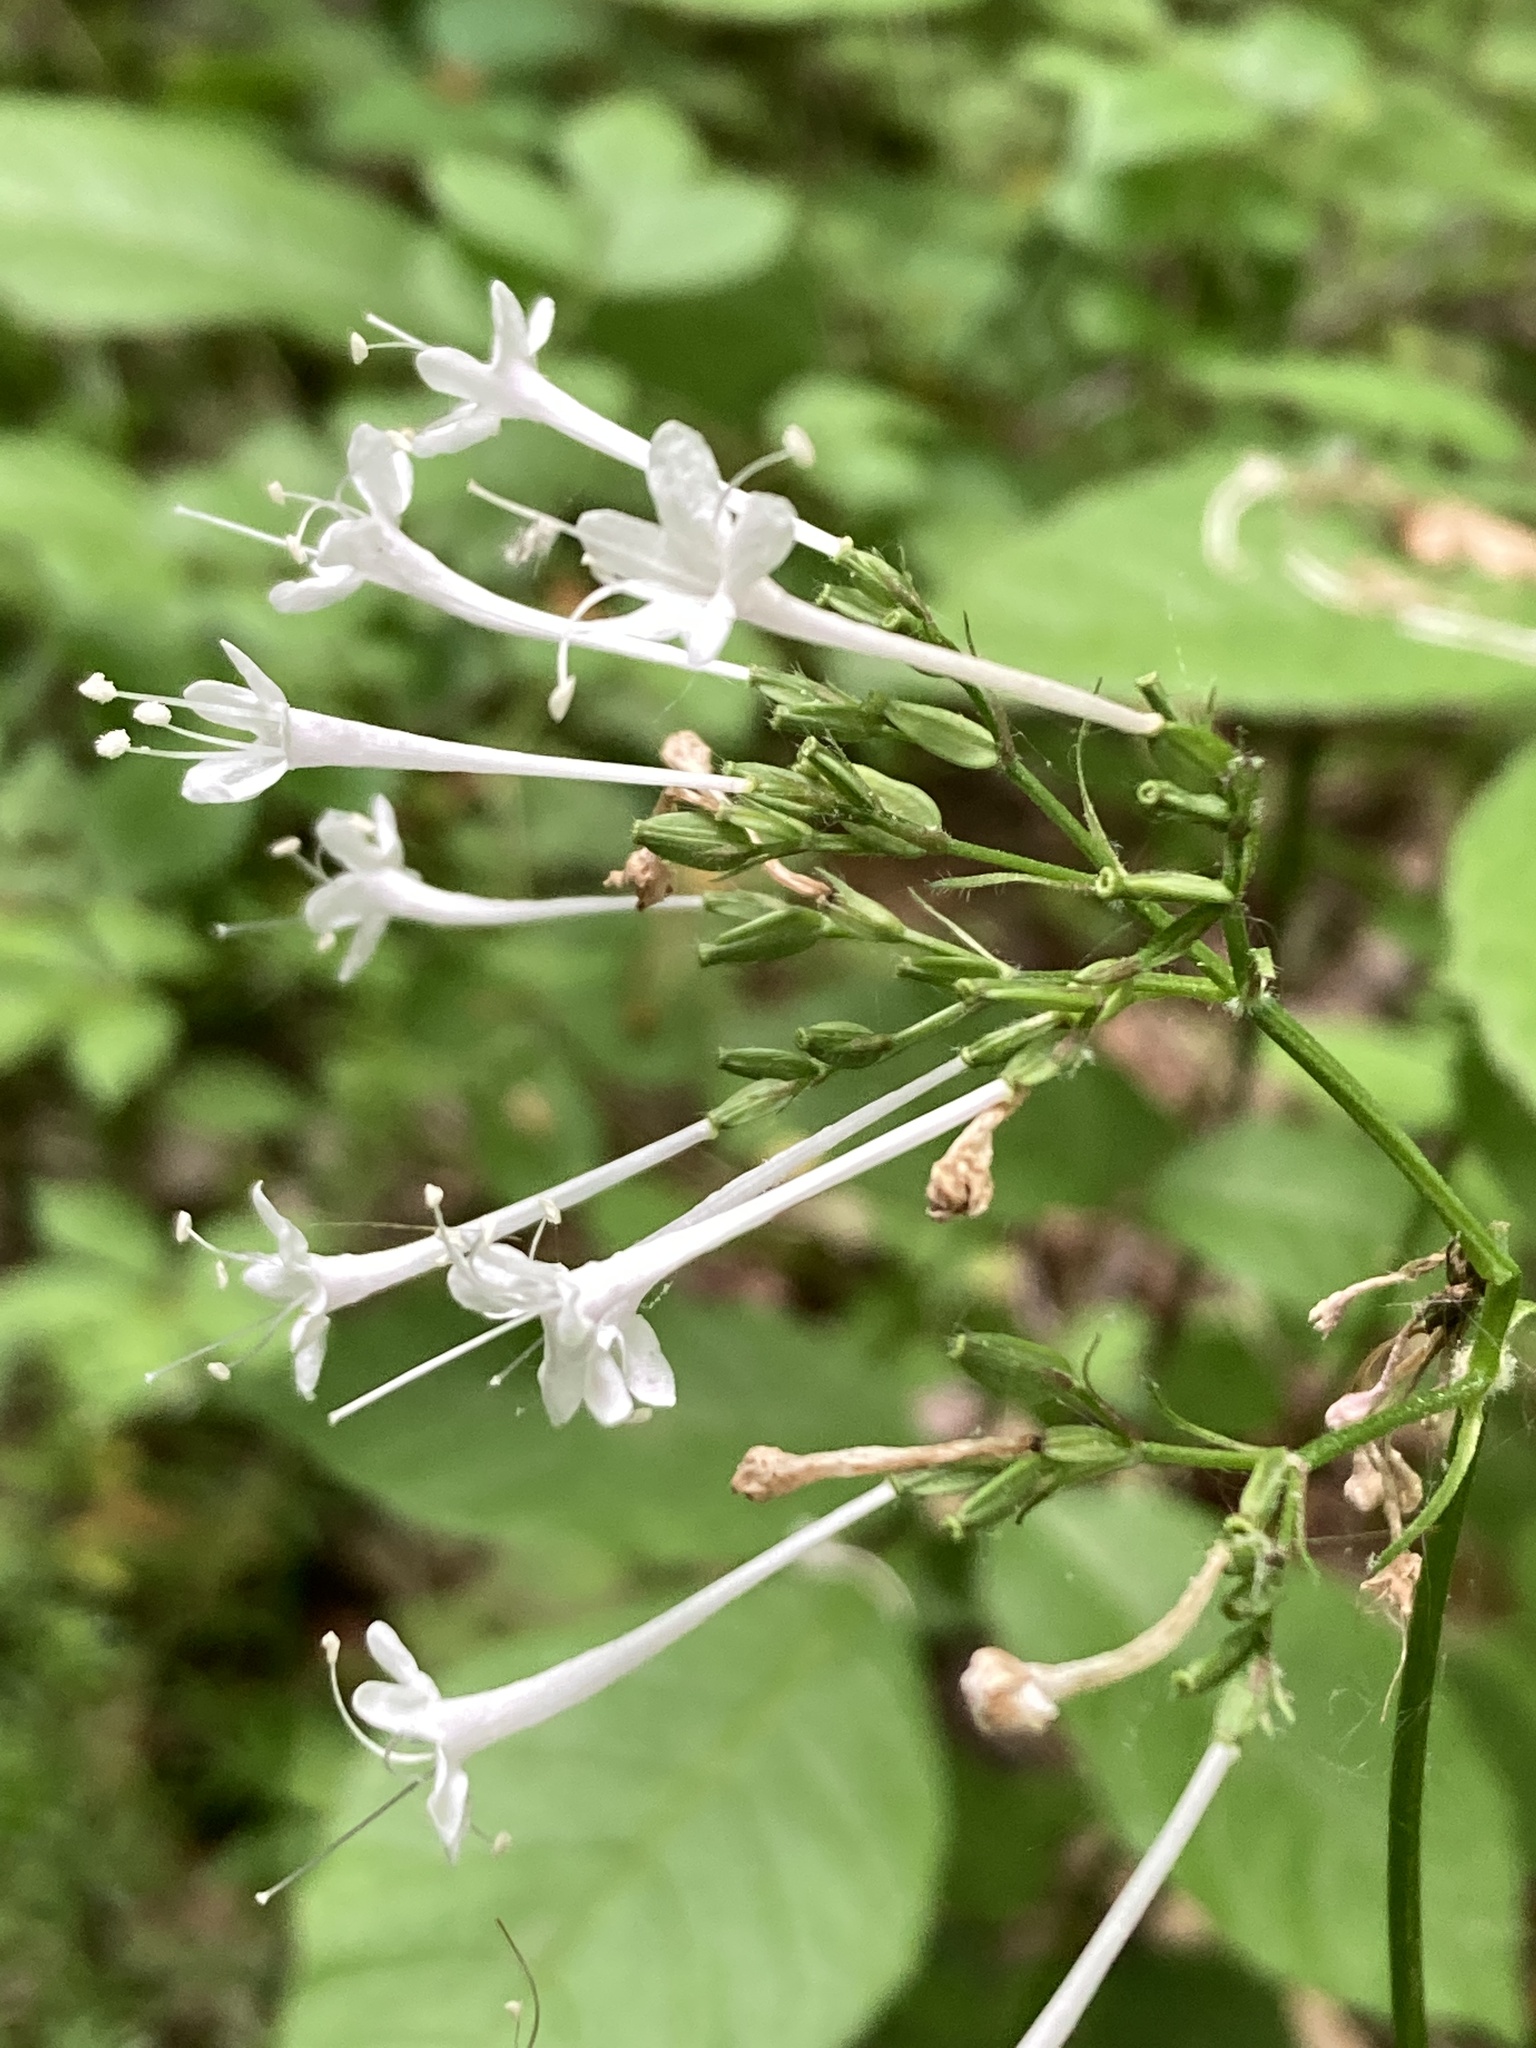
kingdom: Plantae
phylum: Tracheophyta
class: Magnoliopsida
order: Dipsacales
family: Caprifoliaceae
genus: Valeriana
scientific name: Valeriana pauciflora
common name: Long-tube valeriana
